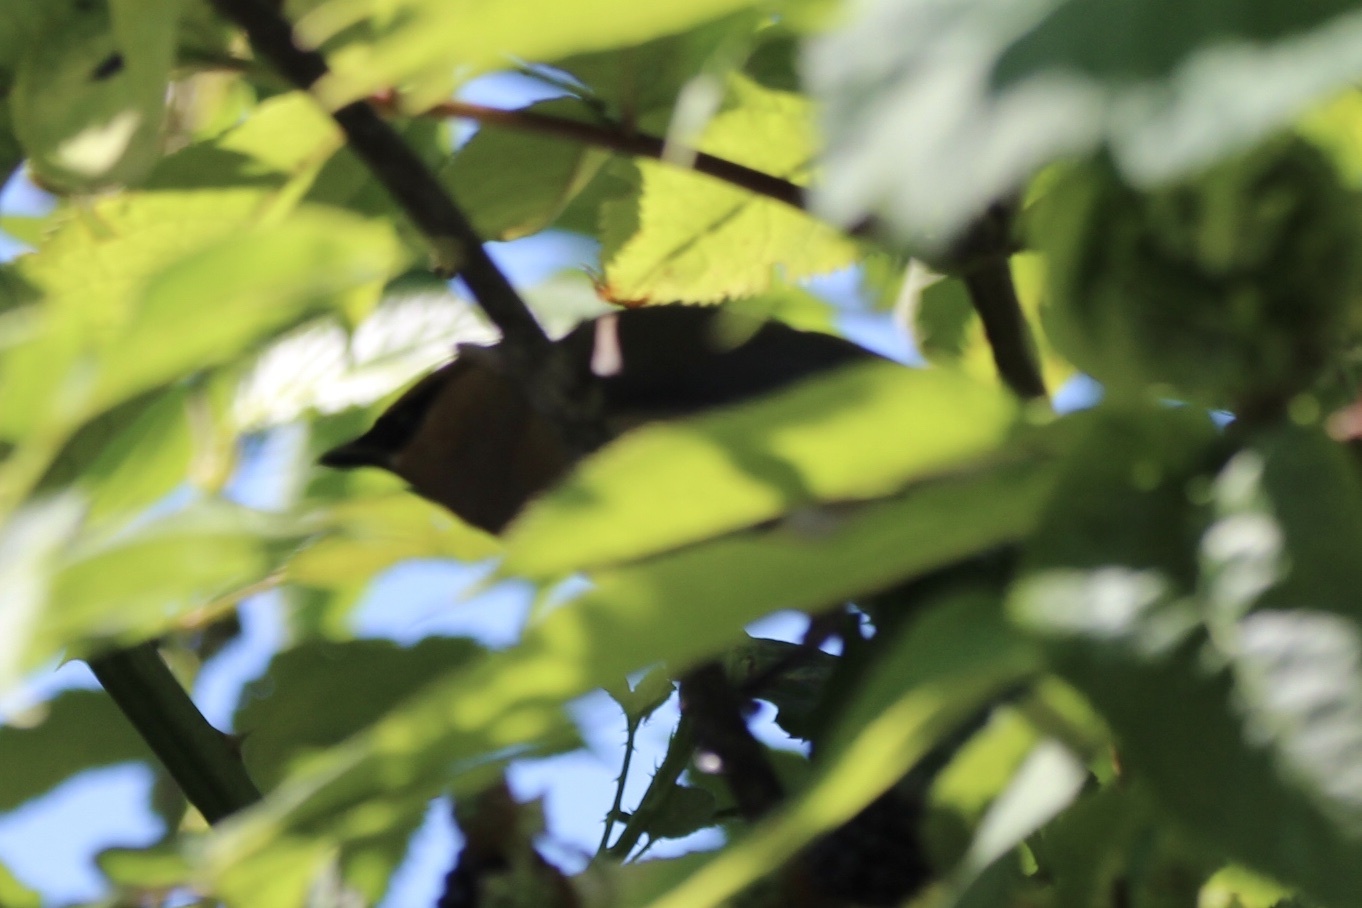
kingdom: Animalia
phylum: Chordata
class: Aves
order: Passeriformes
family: Bombycillidae
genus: Bombycilla
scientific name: Bombycilla cedrorum
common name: Cedar waxwing
